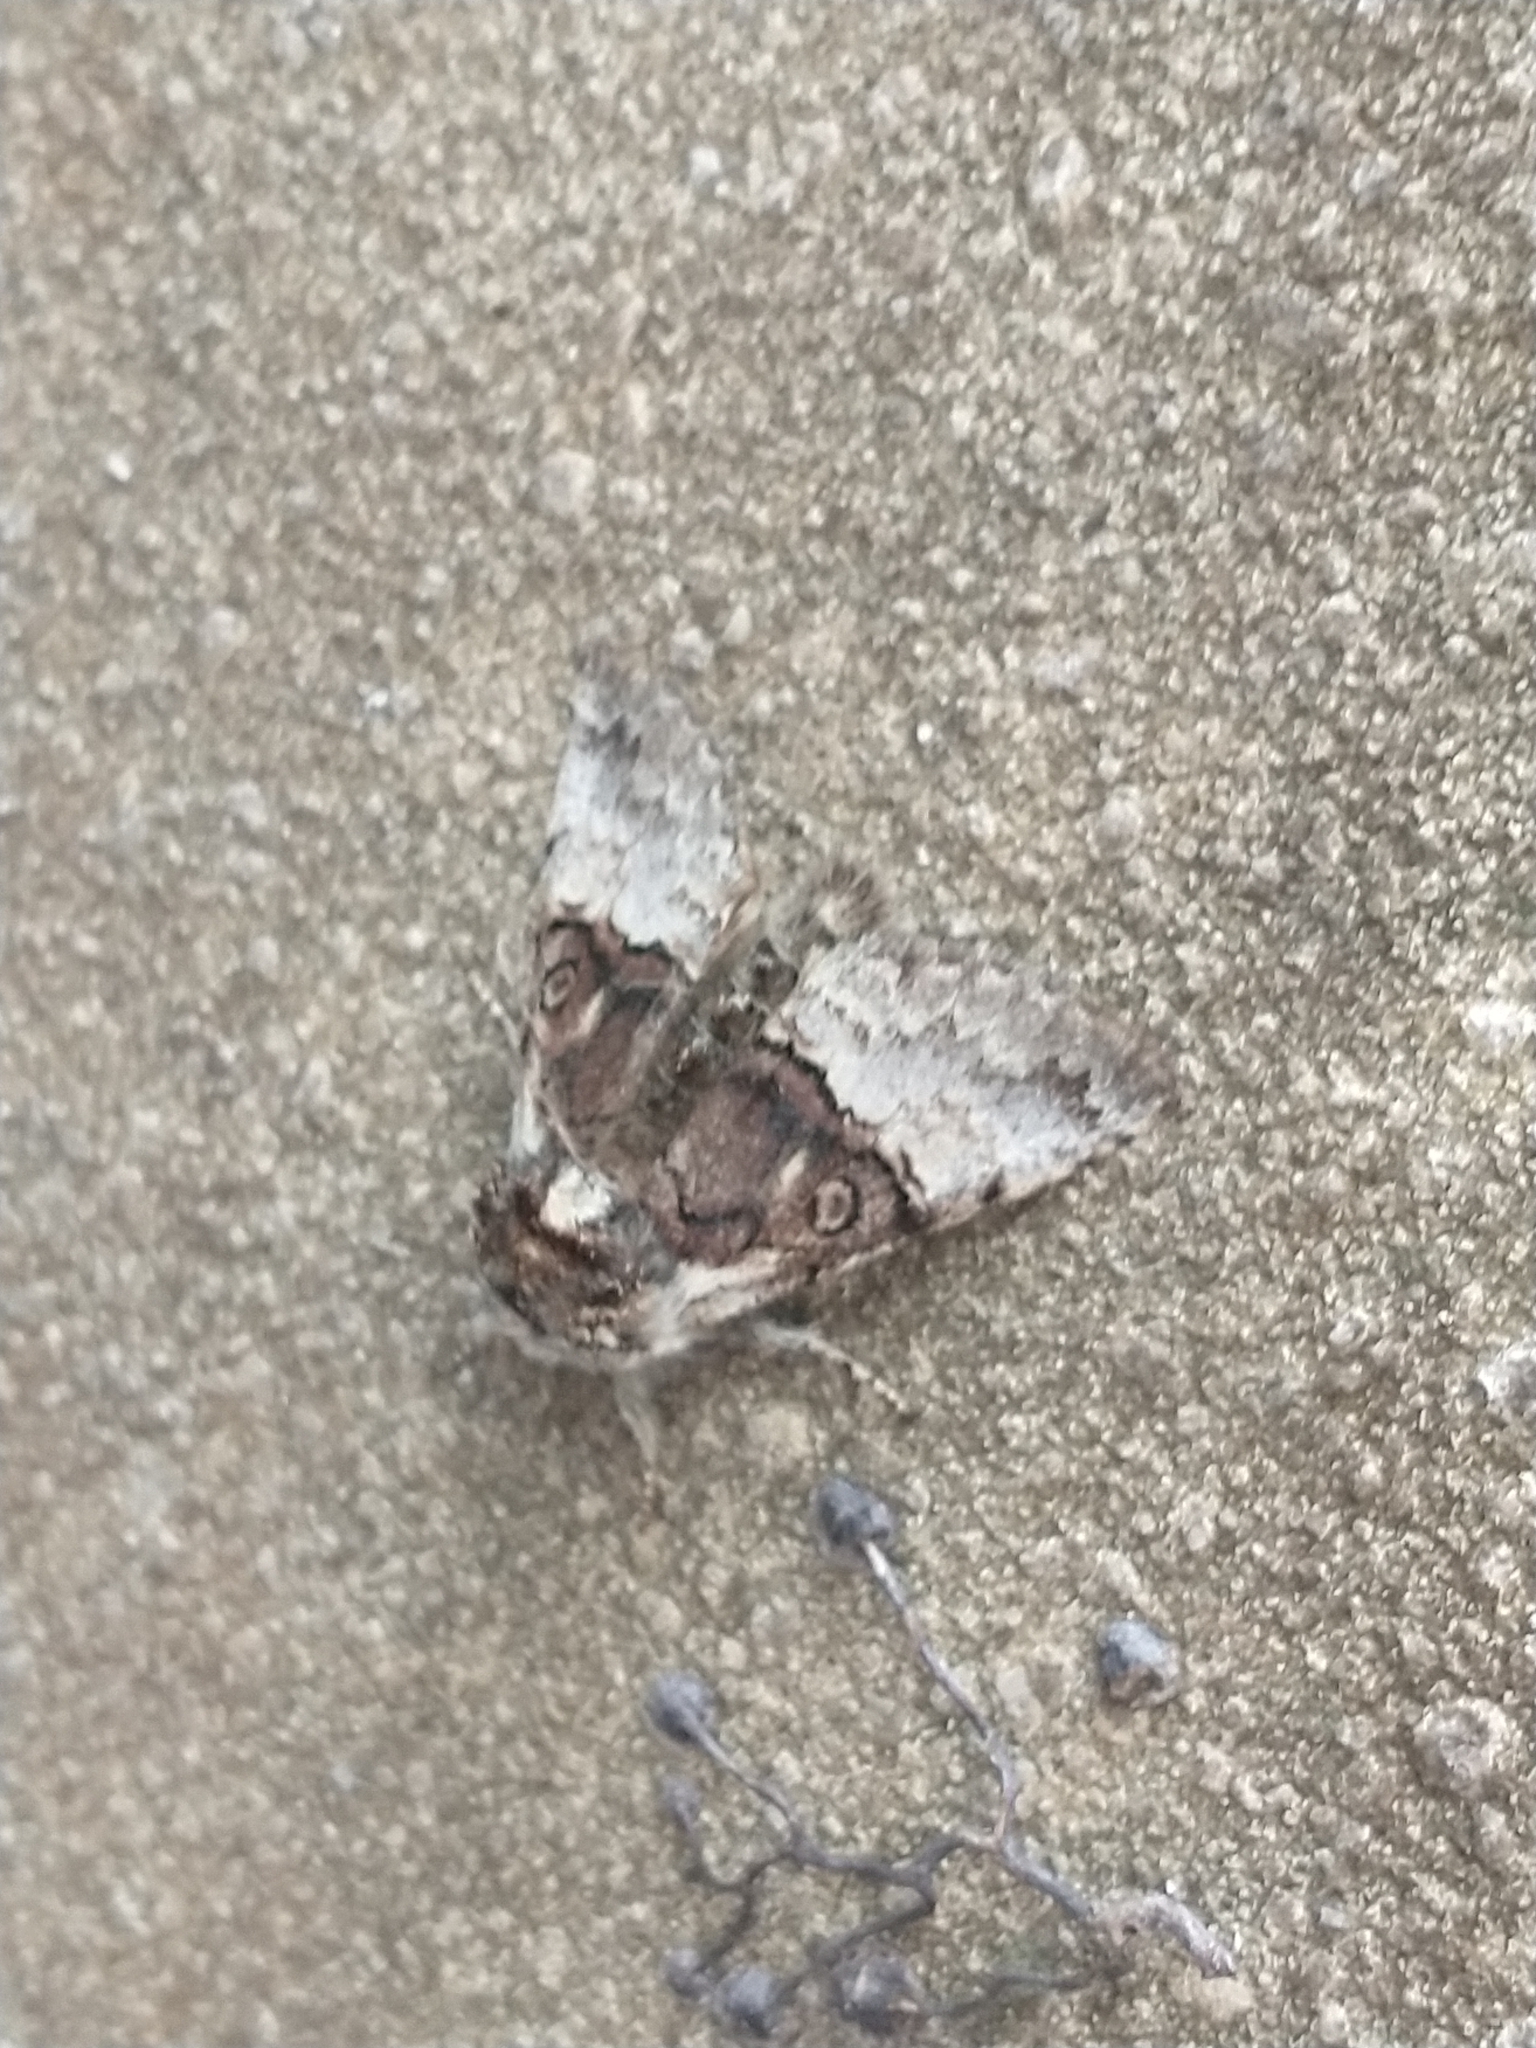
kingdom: Animalia
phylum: Arthropoda
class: Insecta
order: Lepidoptera
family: Noctuidae
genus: Colocasia
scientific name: Colocasia coryli
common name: Nut-tree tussock
